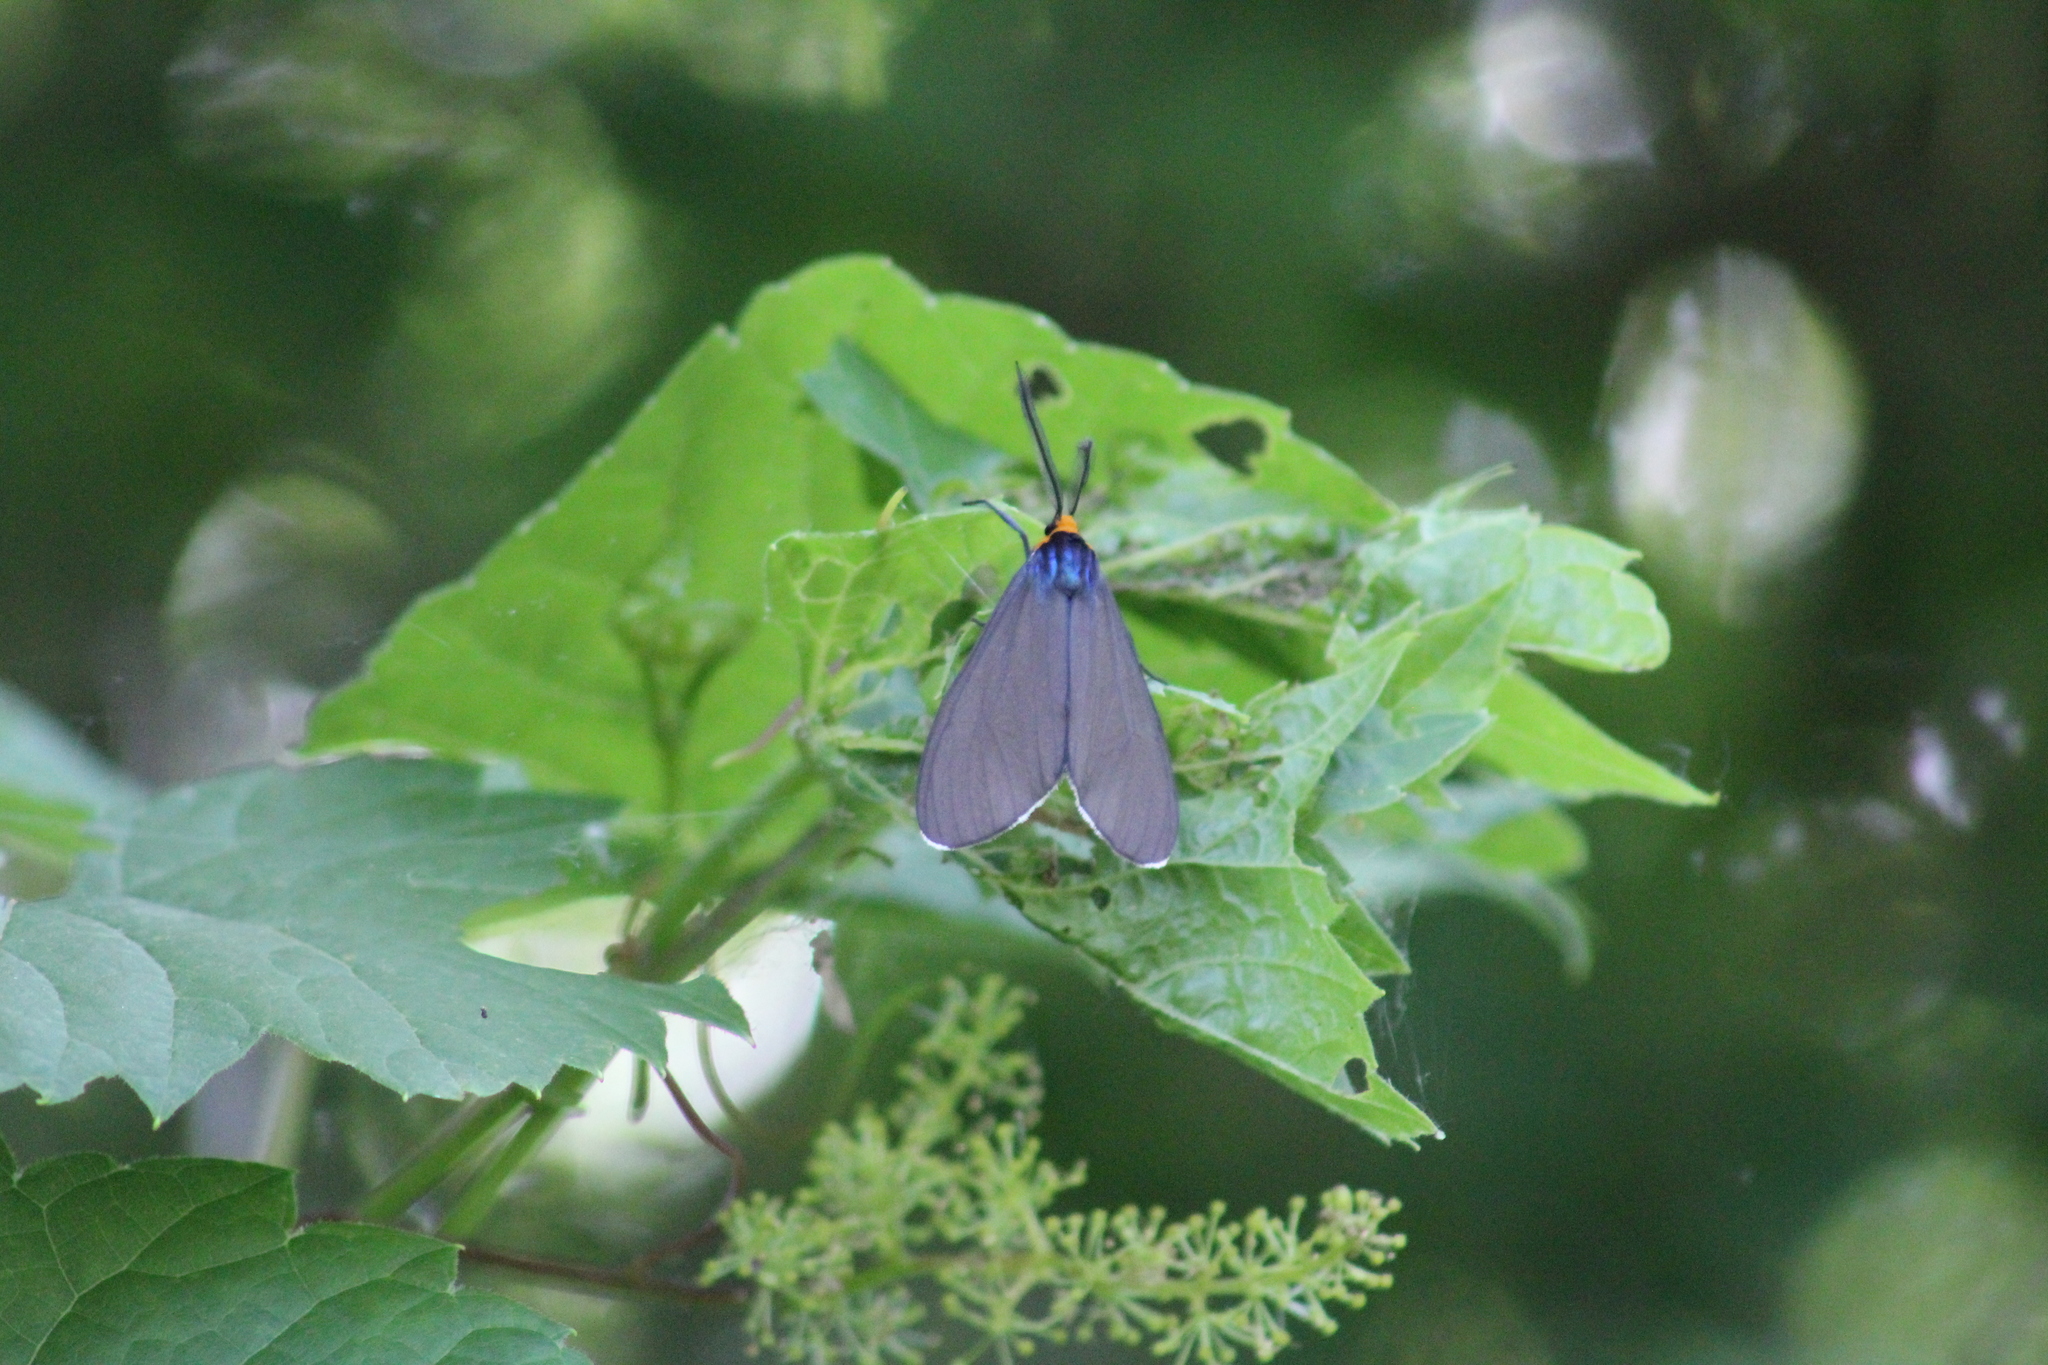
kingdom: Animalia
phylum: Arthropoda
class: Insecta
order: Lepidoptera
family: Erebidae
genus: Ctenucha
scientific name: Ctenucha virginica
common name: Virginia ctenucha moth
